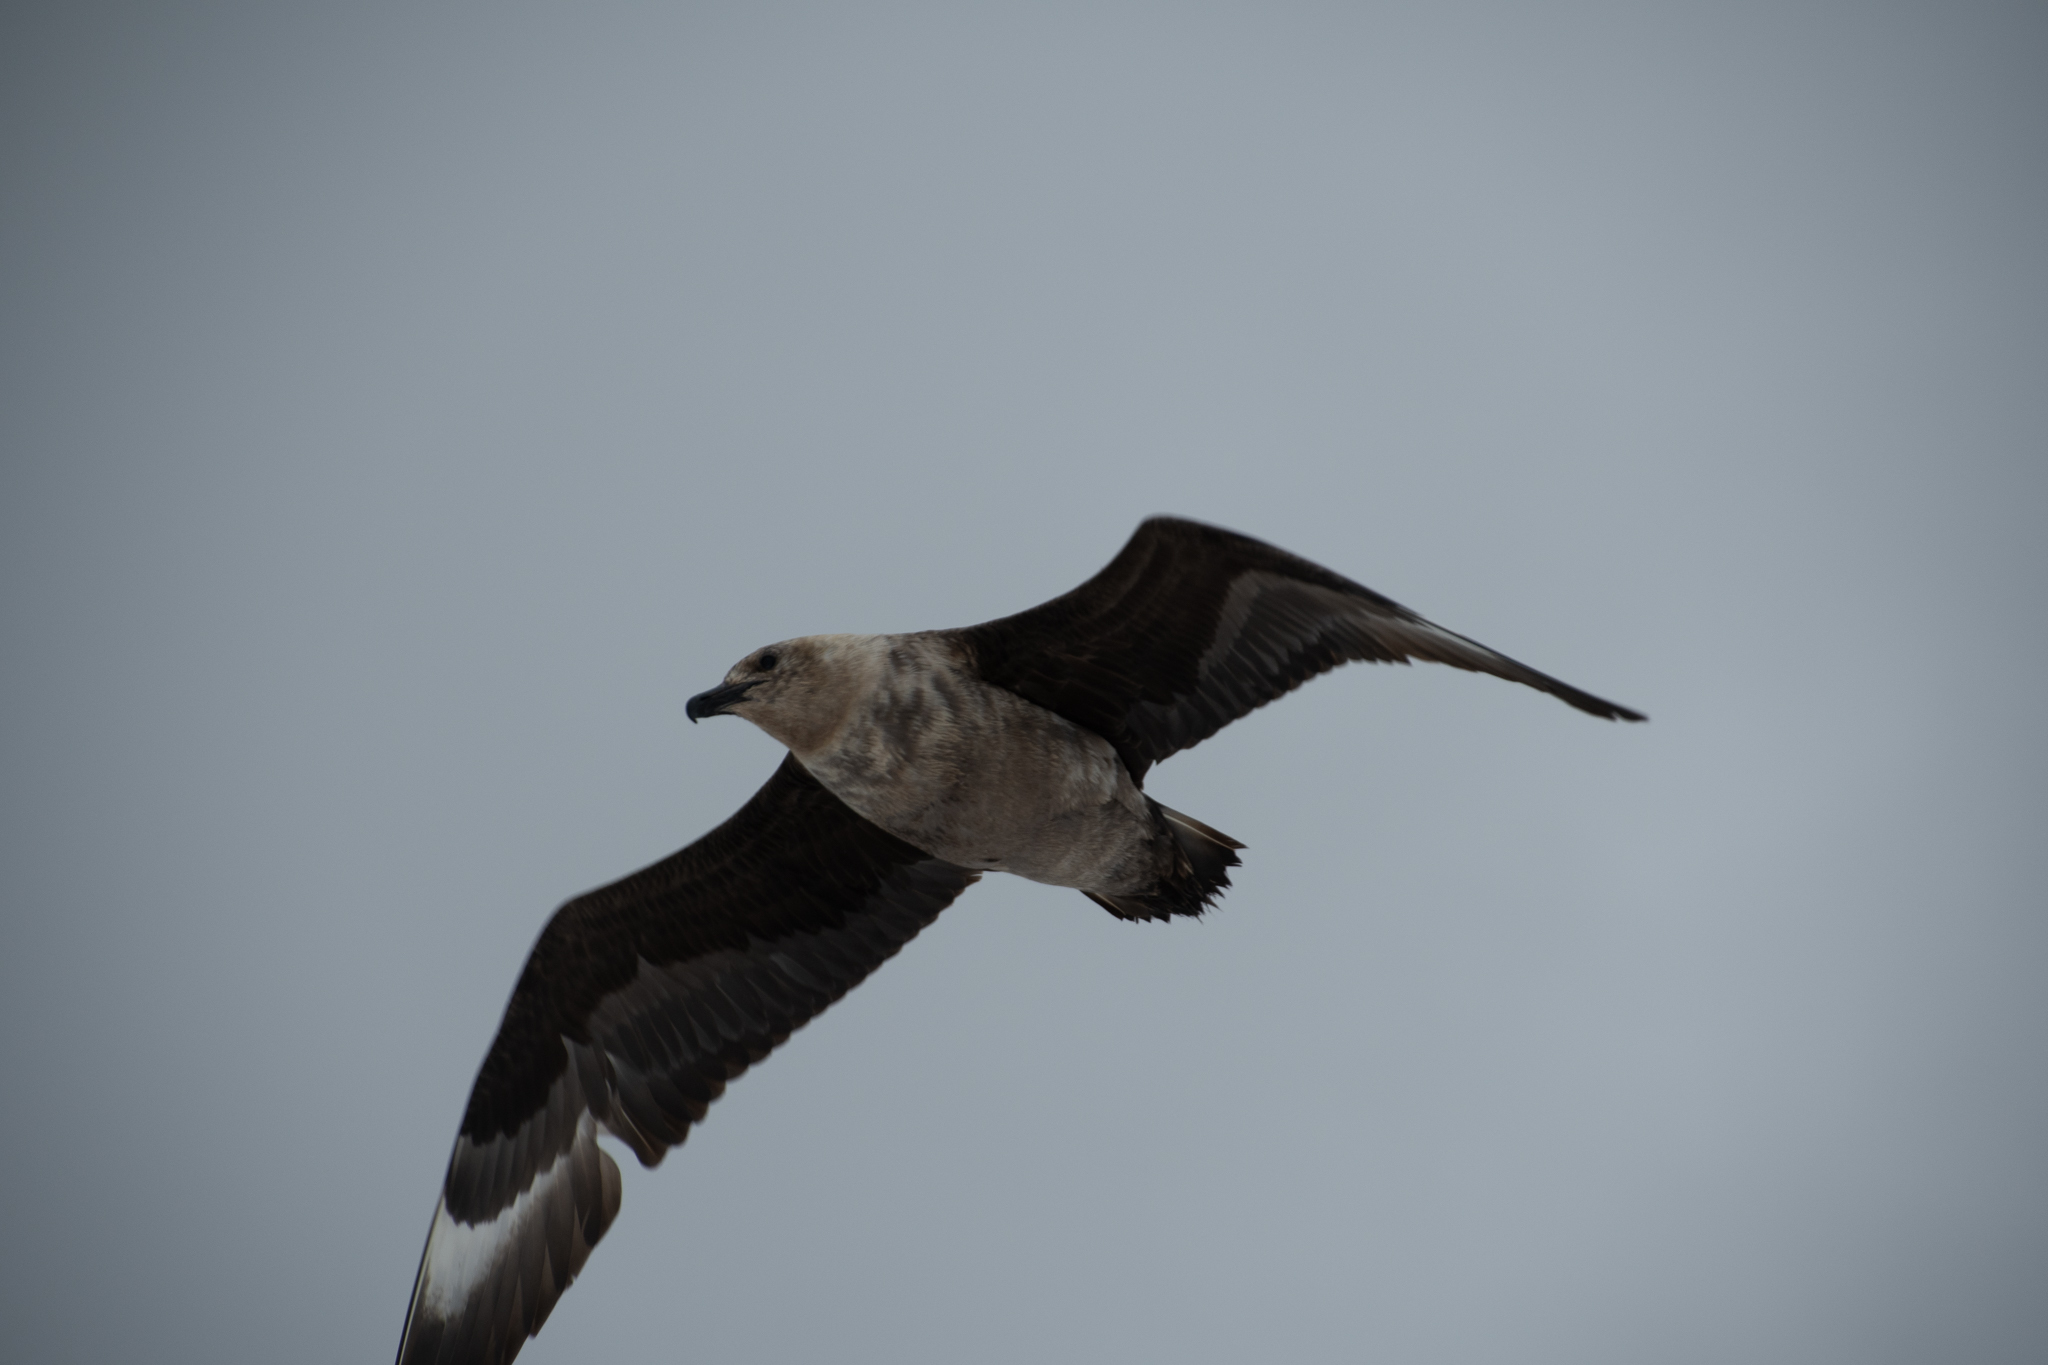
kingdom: Animalia
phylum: Chordata
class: Aves
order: Charadriiformes
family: Stercorariidae
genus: Stercorarius
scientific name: Stercorarius maccormicki
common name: South polar skua
